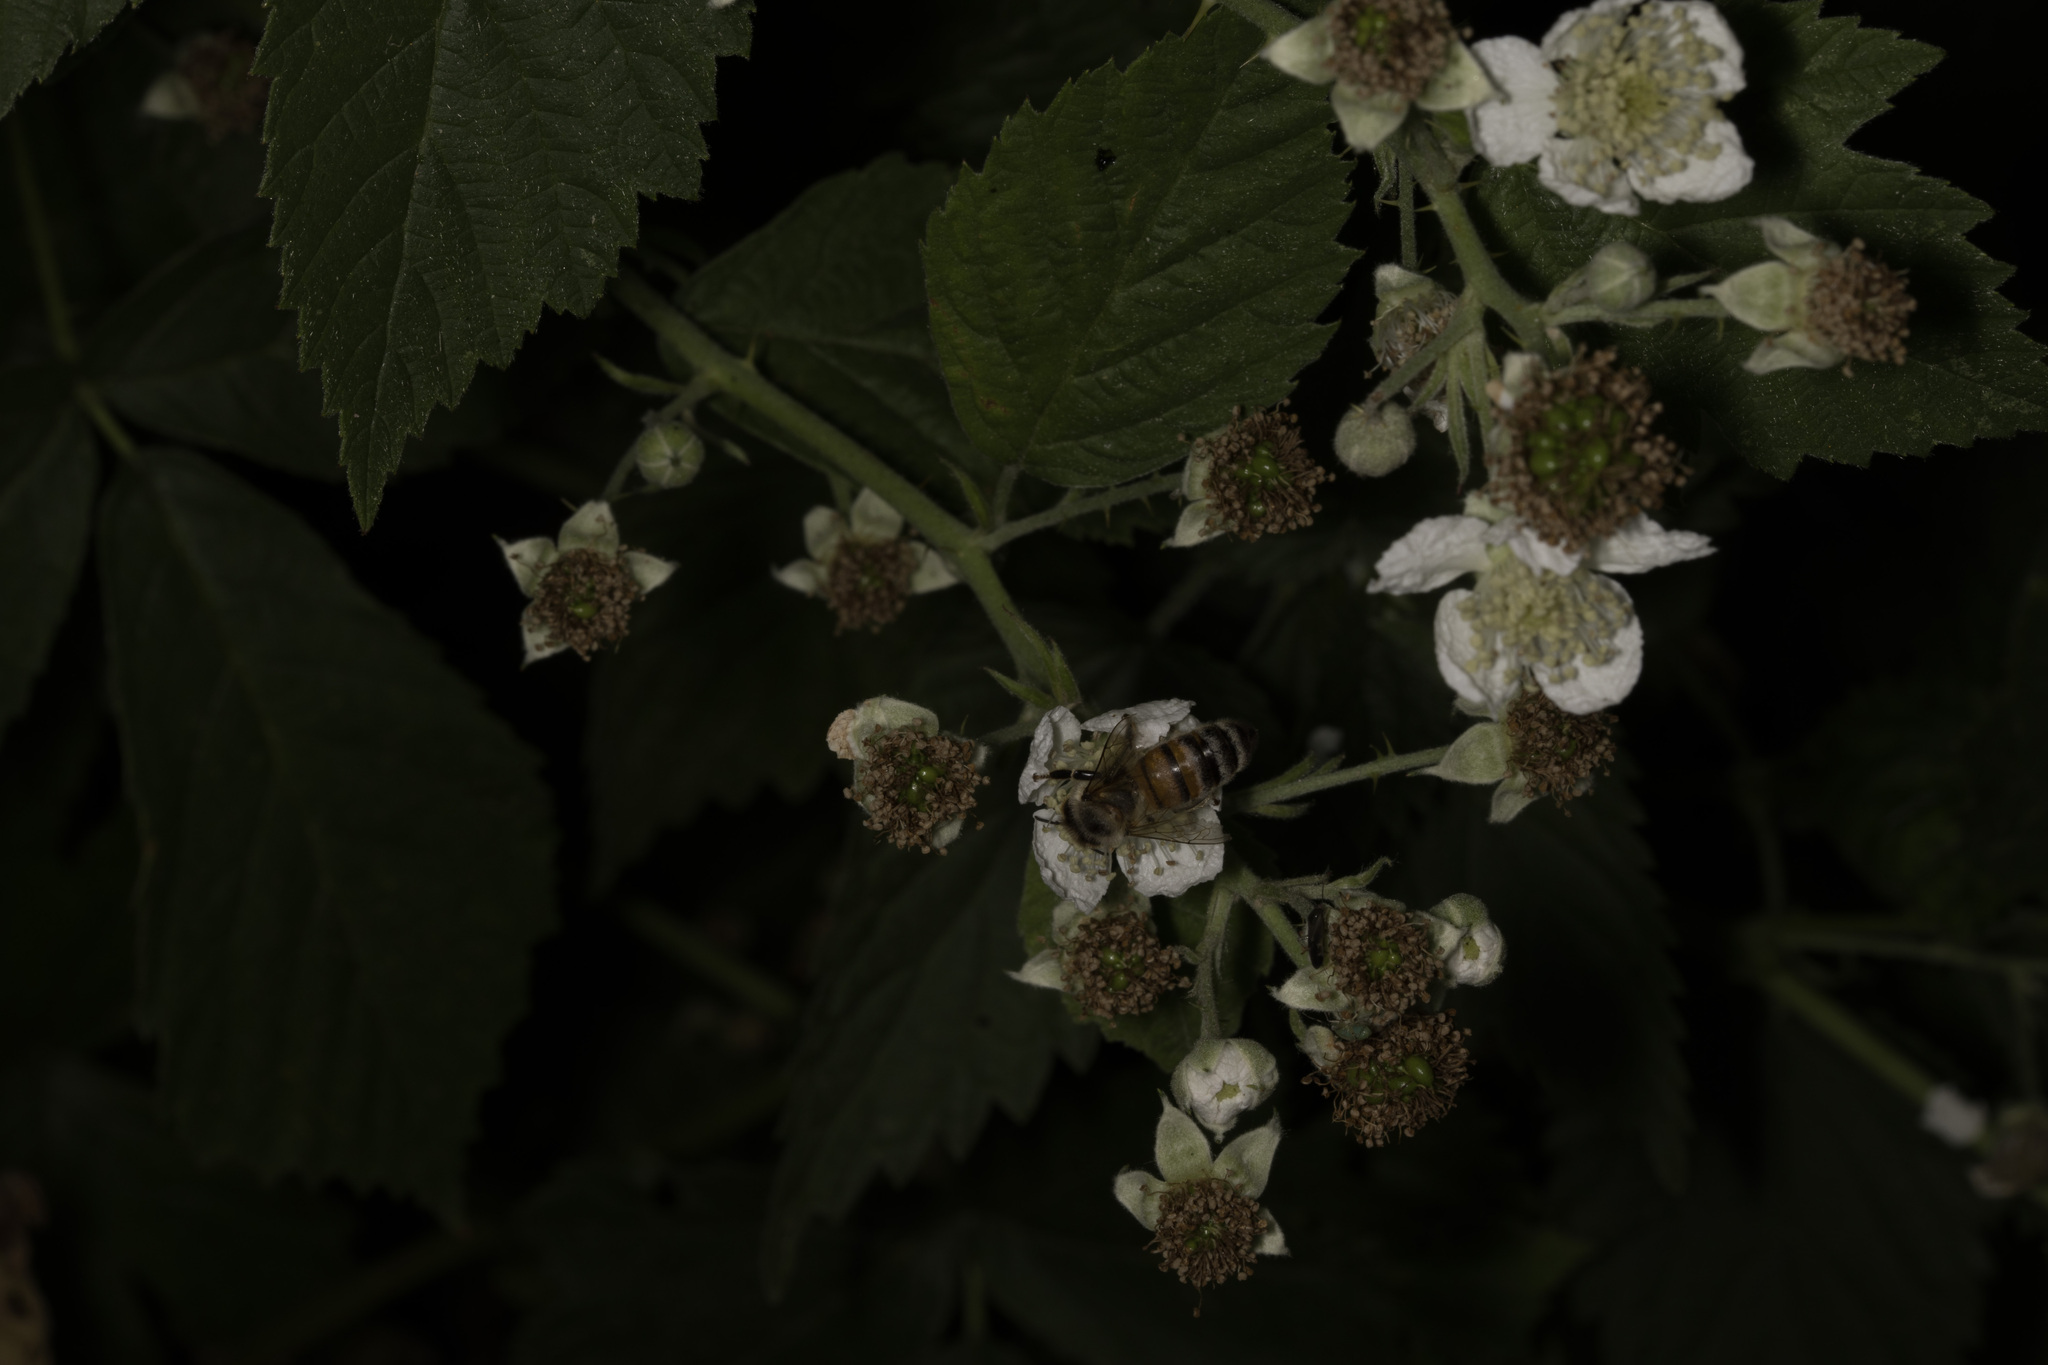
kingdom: Animalia
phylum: Arthropoda
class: Insecta
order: Hymenoptera
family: Apidae
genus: Apis
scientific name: Apis mellifera
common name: Honey bee
